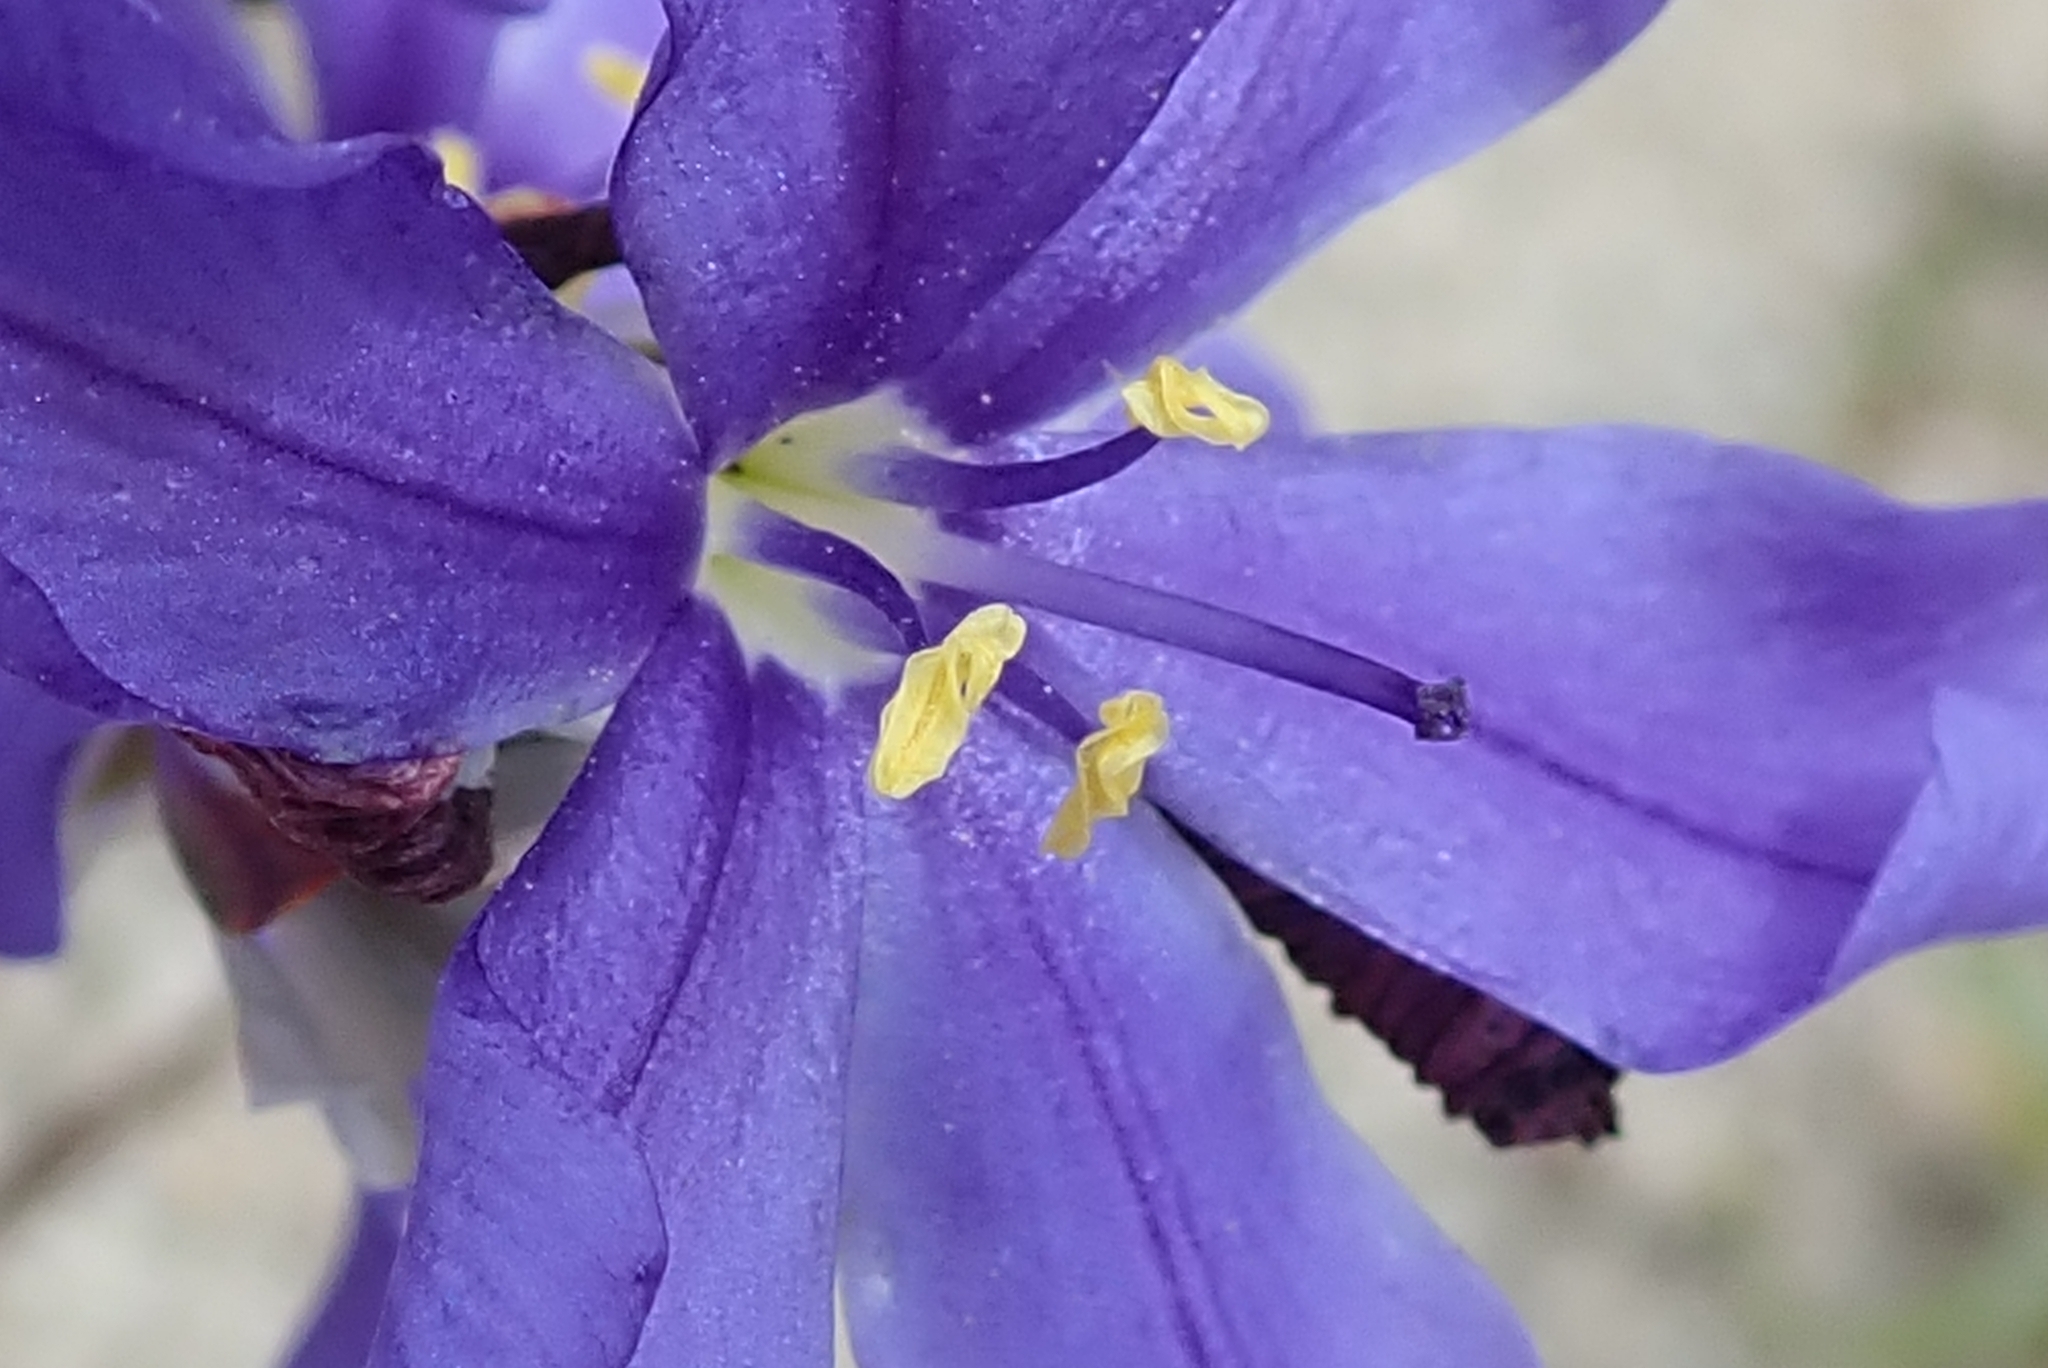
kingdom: Plantae
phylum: Tracheophyta
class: Liliopsida
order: Asparagales
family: Iridaceae
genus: Aristea
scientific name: Aristea oligocephala
